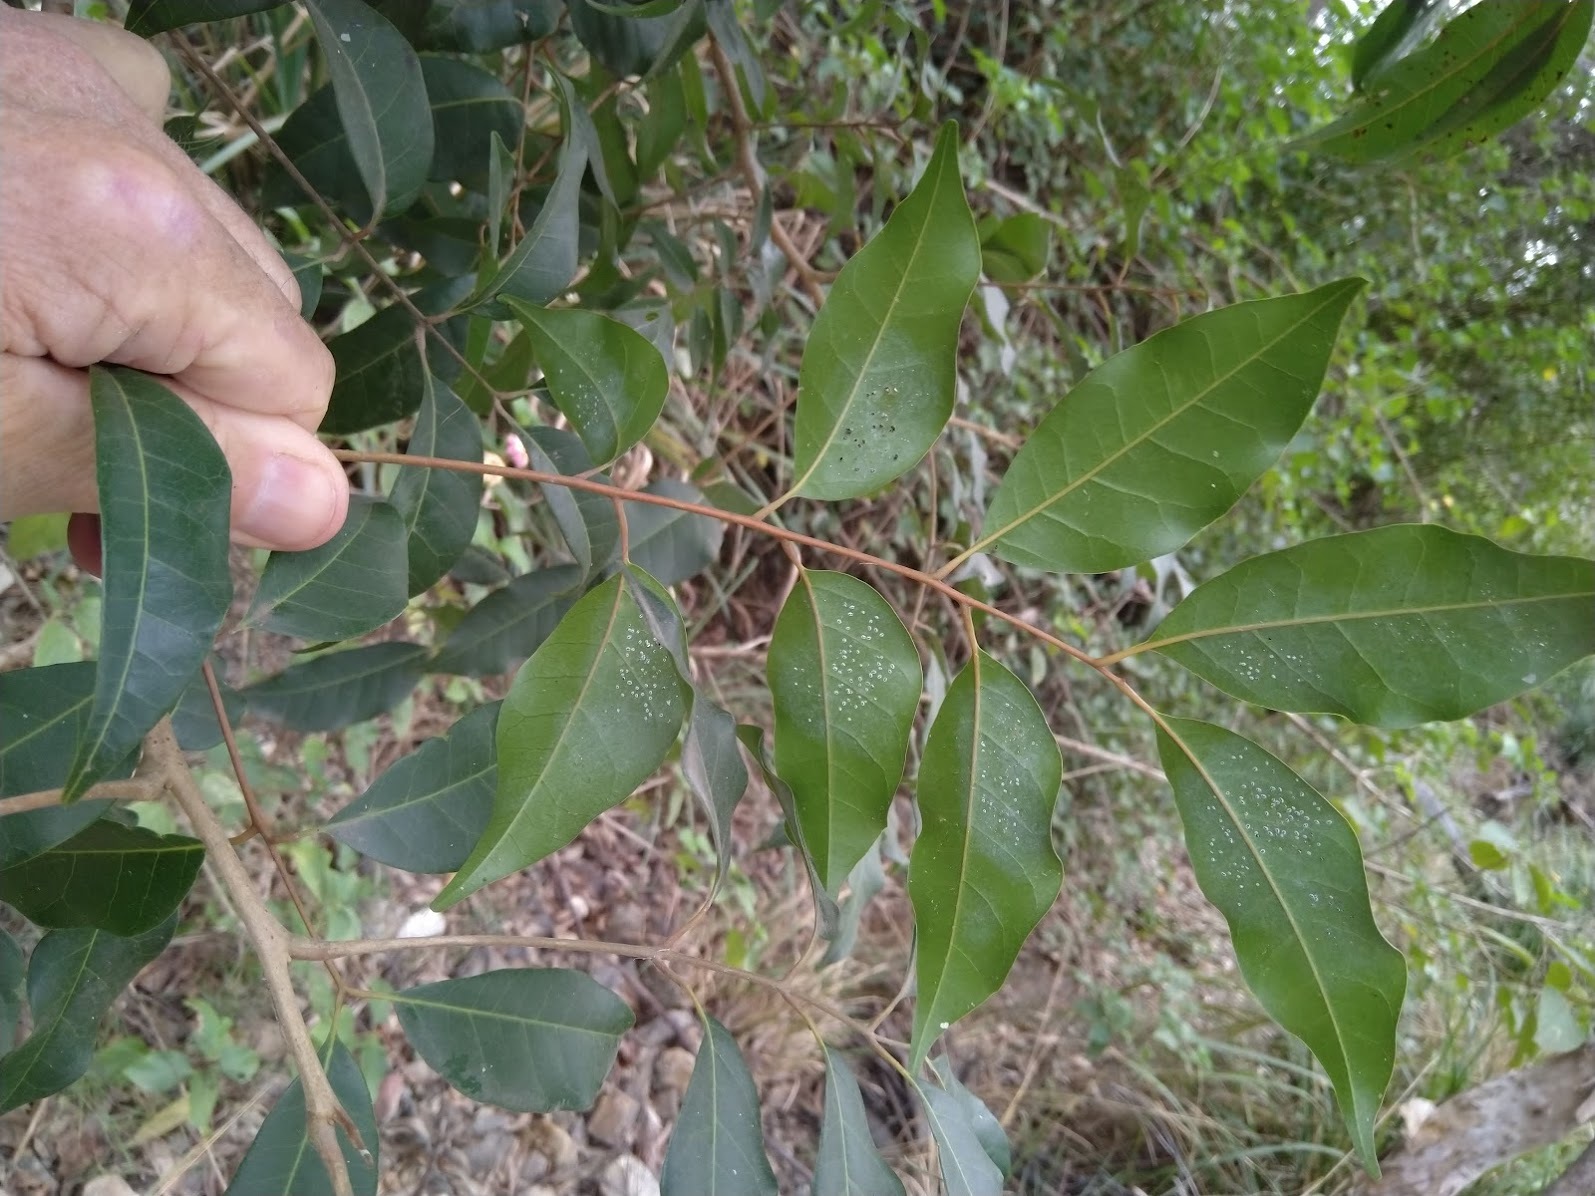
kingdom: Plantae
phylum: Tracheophyta
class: Magnoliopsida
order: Sapindales
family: Anacardiaceae
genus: Euroschinus
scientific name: Euroschinus falcatus
